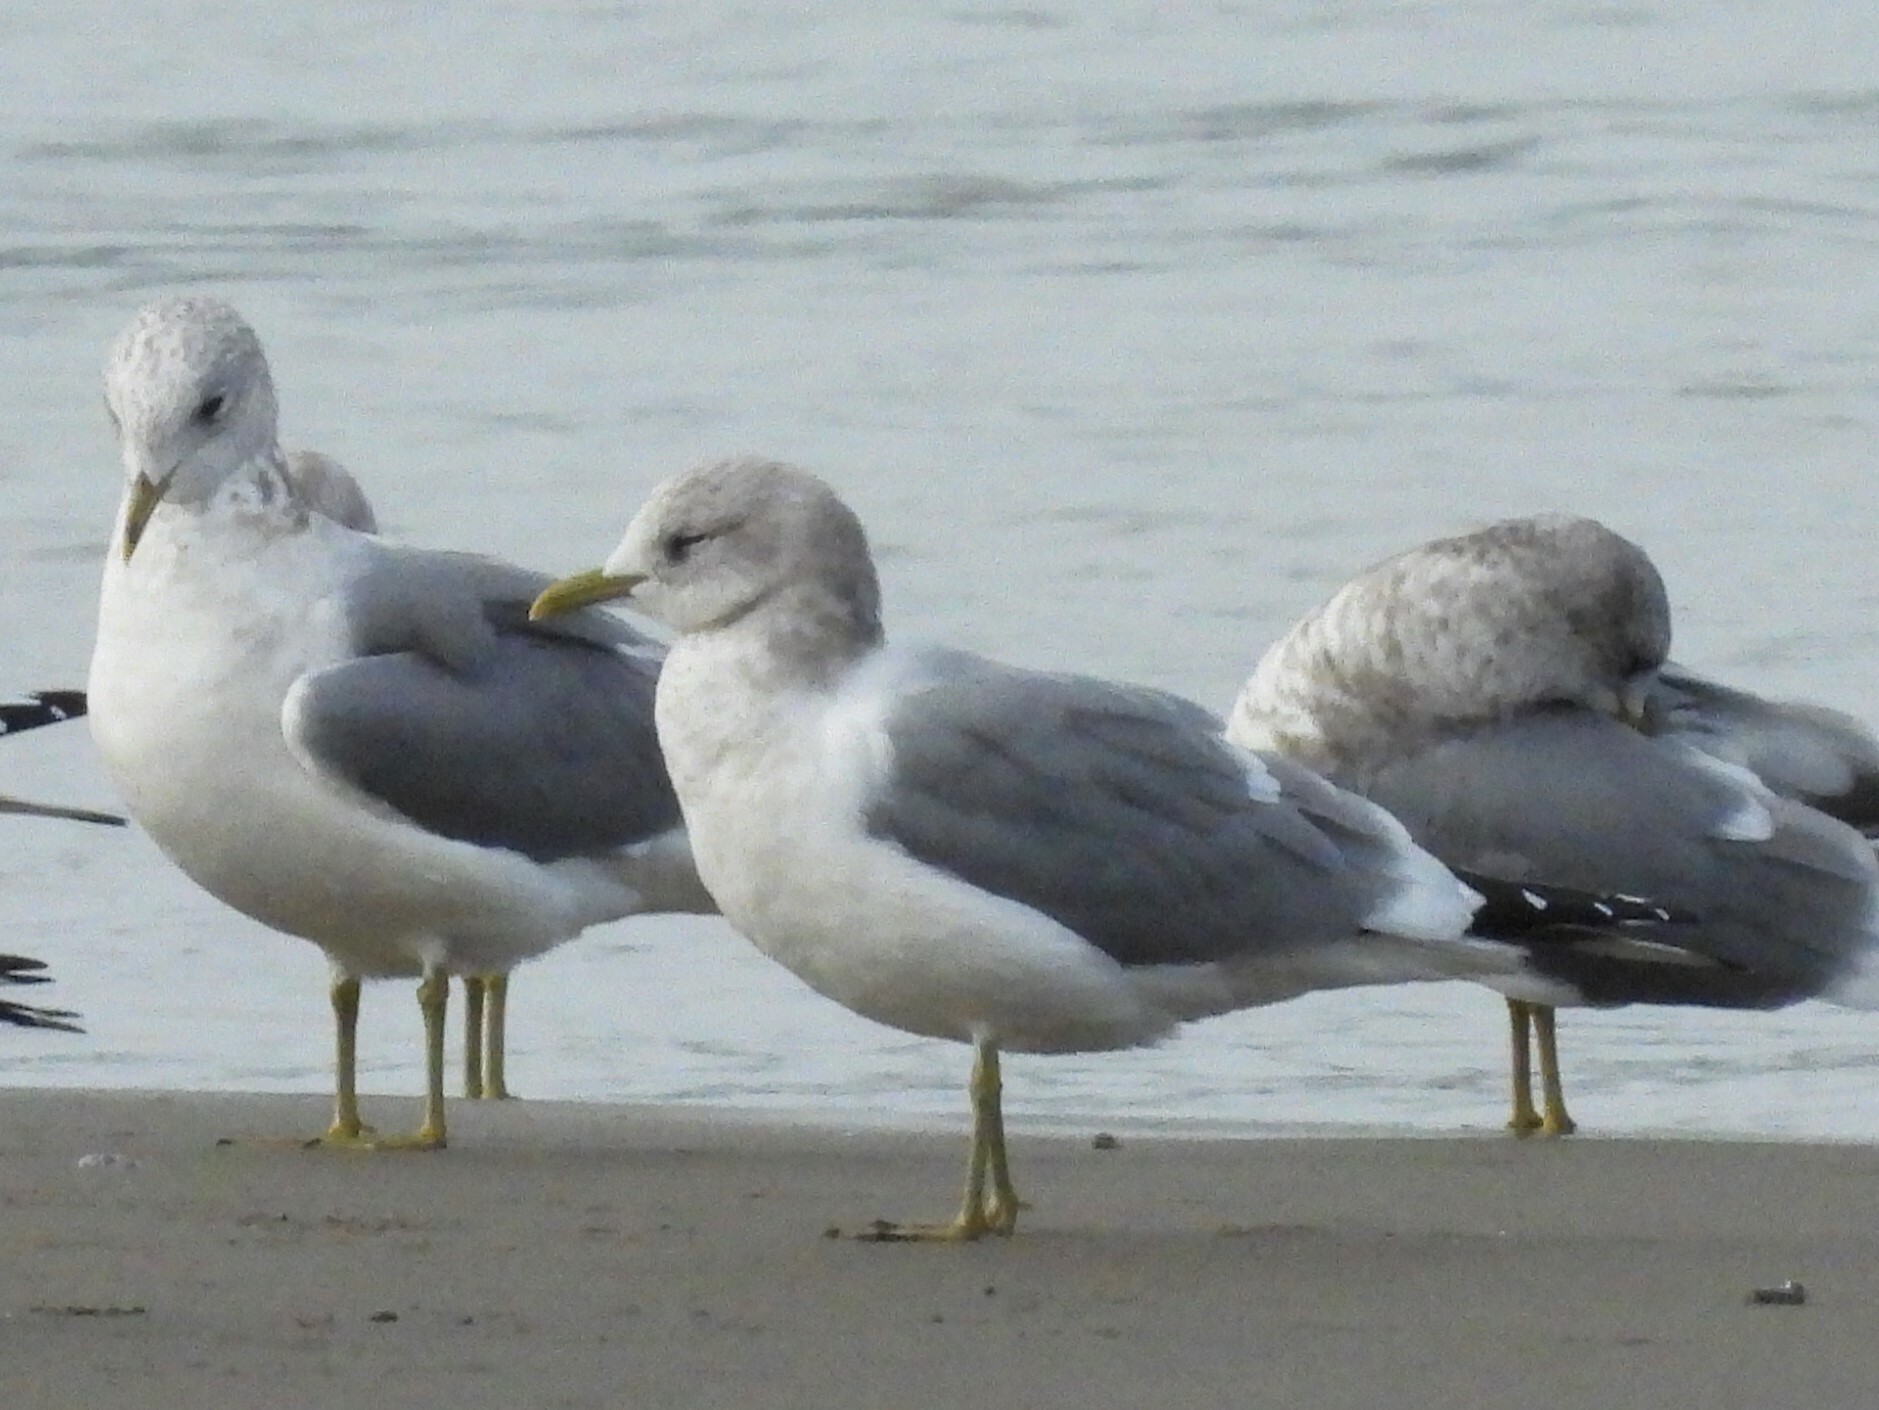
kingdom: Animalia
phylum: Chordata
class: Aves
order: Charadriiformes
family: Laridae
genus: Larus
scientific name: Larus brachyrhynchus
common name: Short-billed gull
